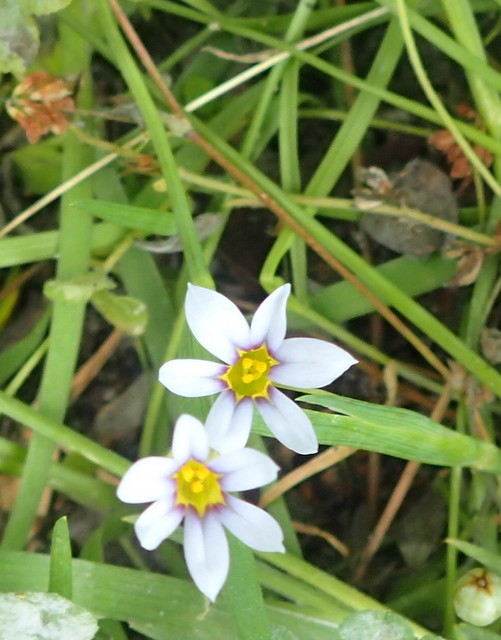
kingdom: Plantae
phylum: Tracheophyta
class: Liliopsida
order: Asparagales
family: Iridaceae
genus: Sisyrinchium
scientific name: Sisyrinchium micranthum
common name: Bermuda pigroot
